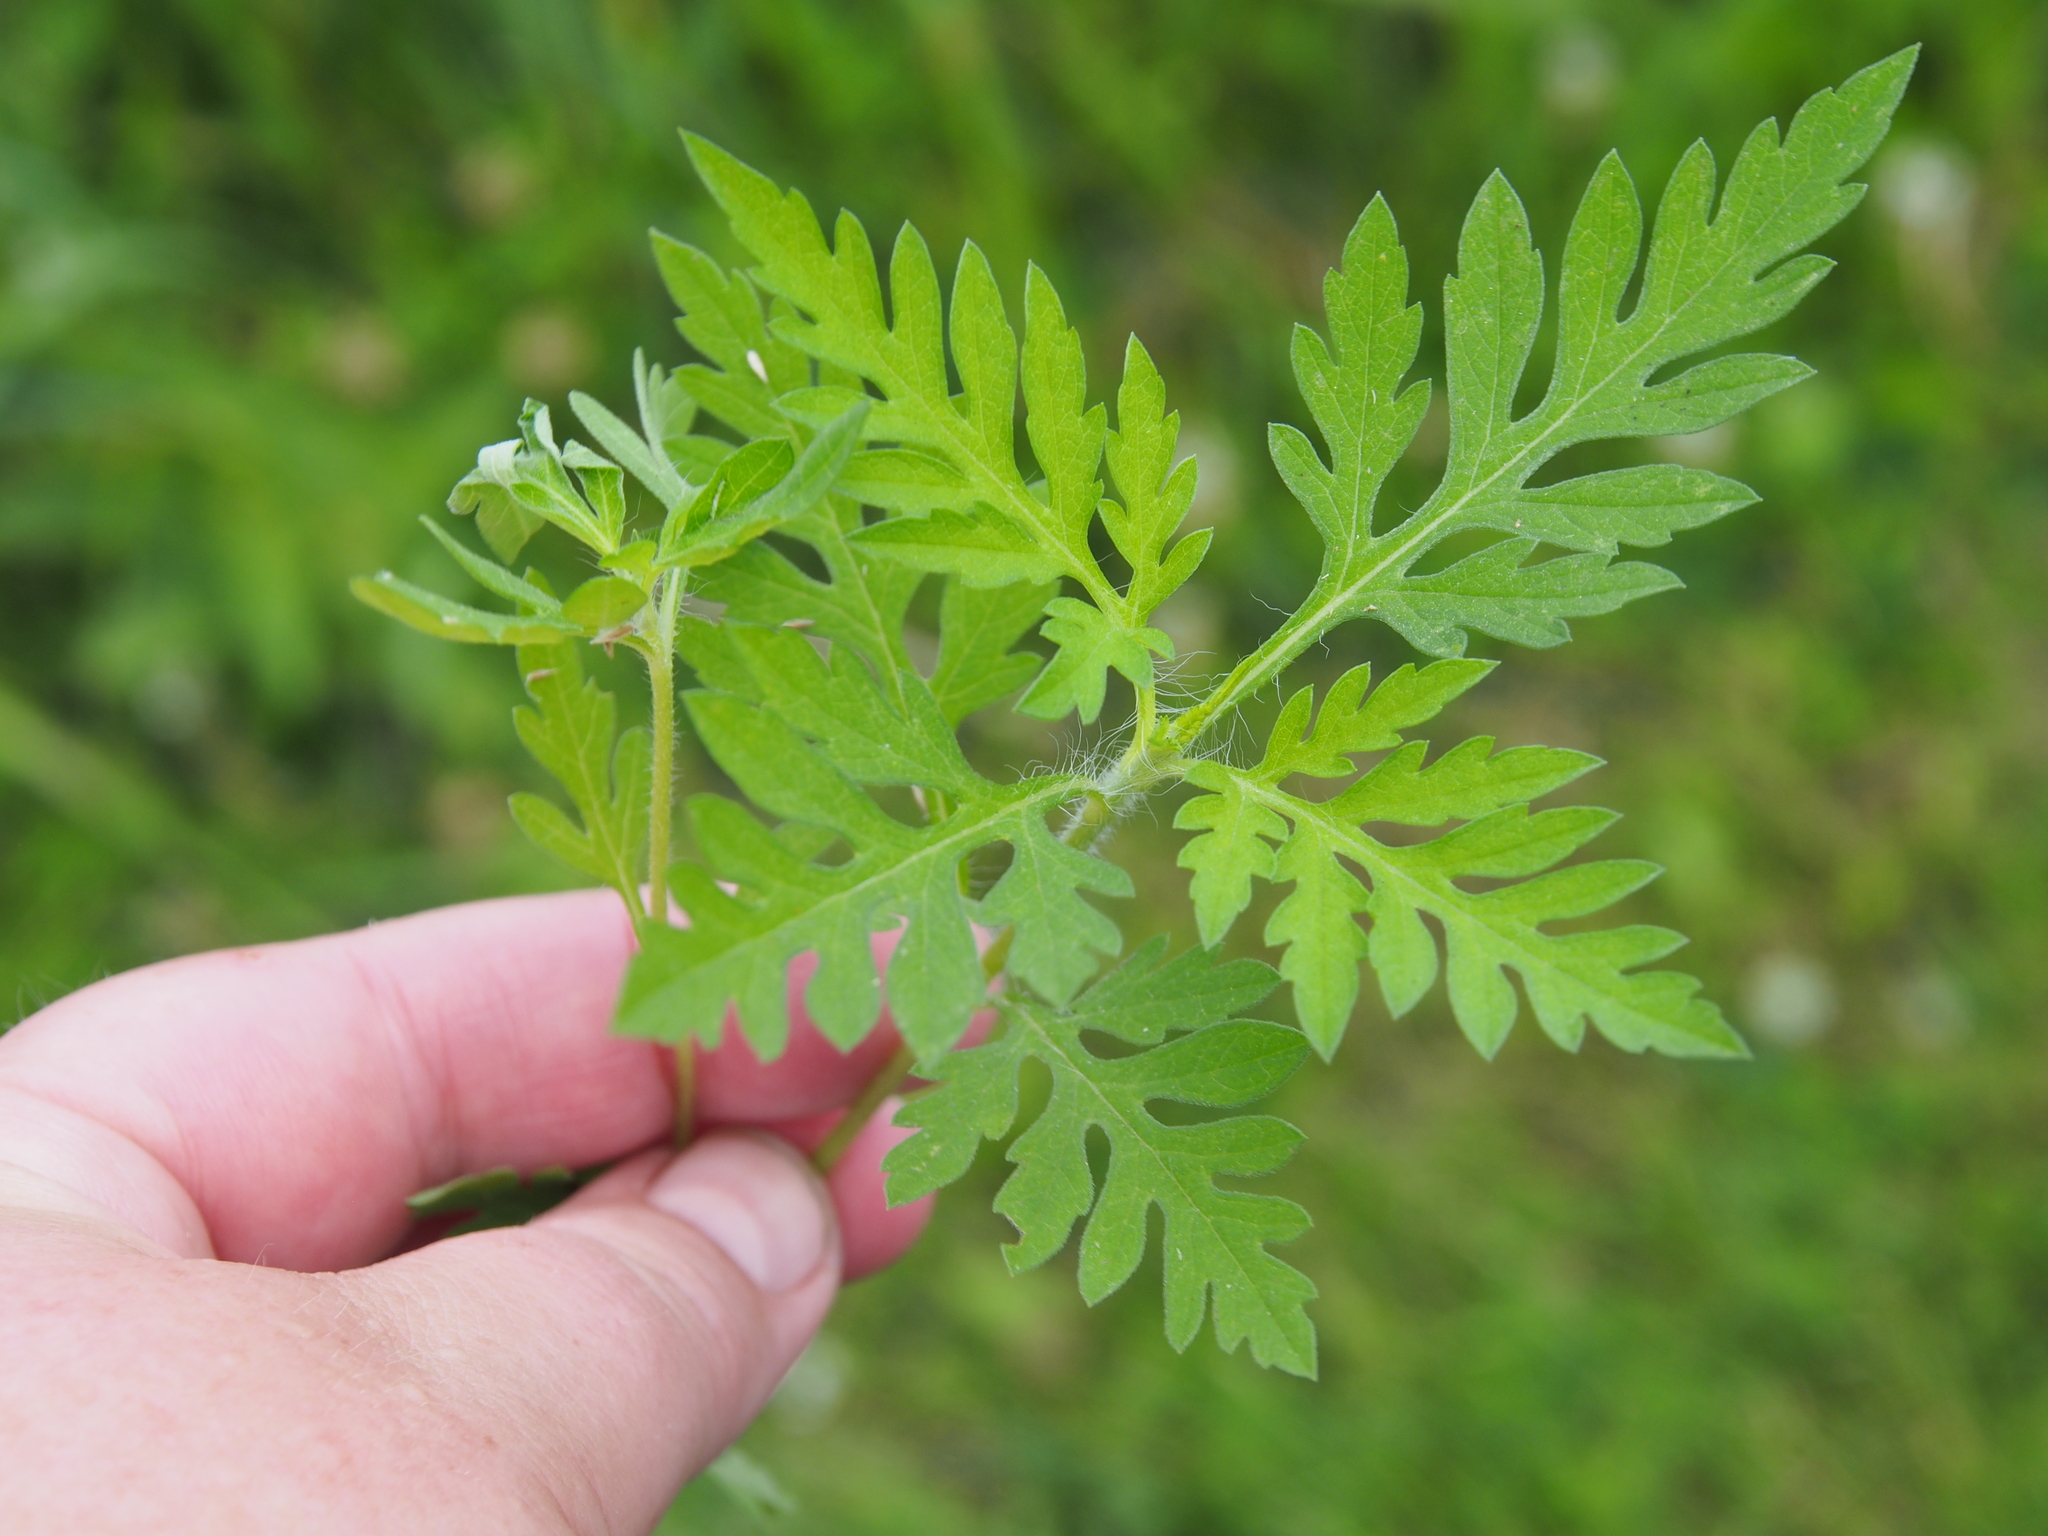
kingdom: Plantae
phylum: Tracheophyta
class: Magnoliopsida
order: Asterales
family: Asteraceae
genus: Ambrosia
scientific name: Ambrosia artemisiifolia
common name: Annual ragweed
